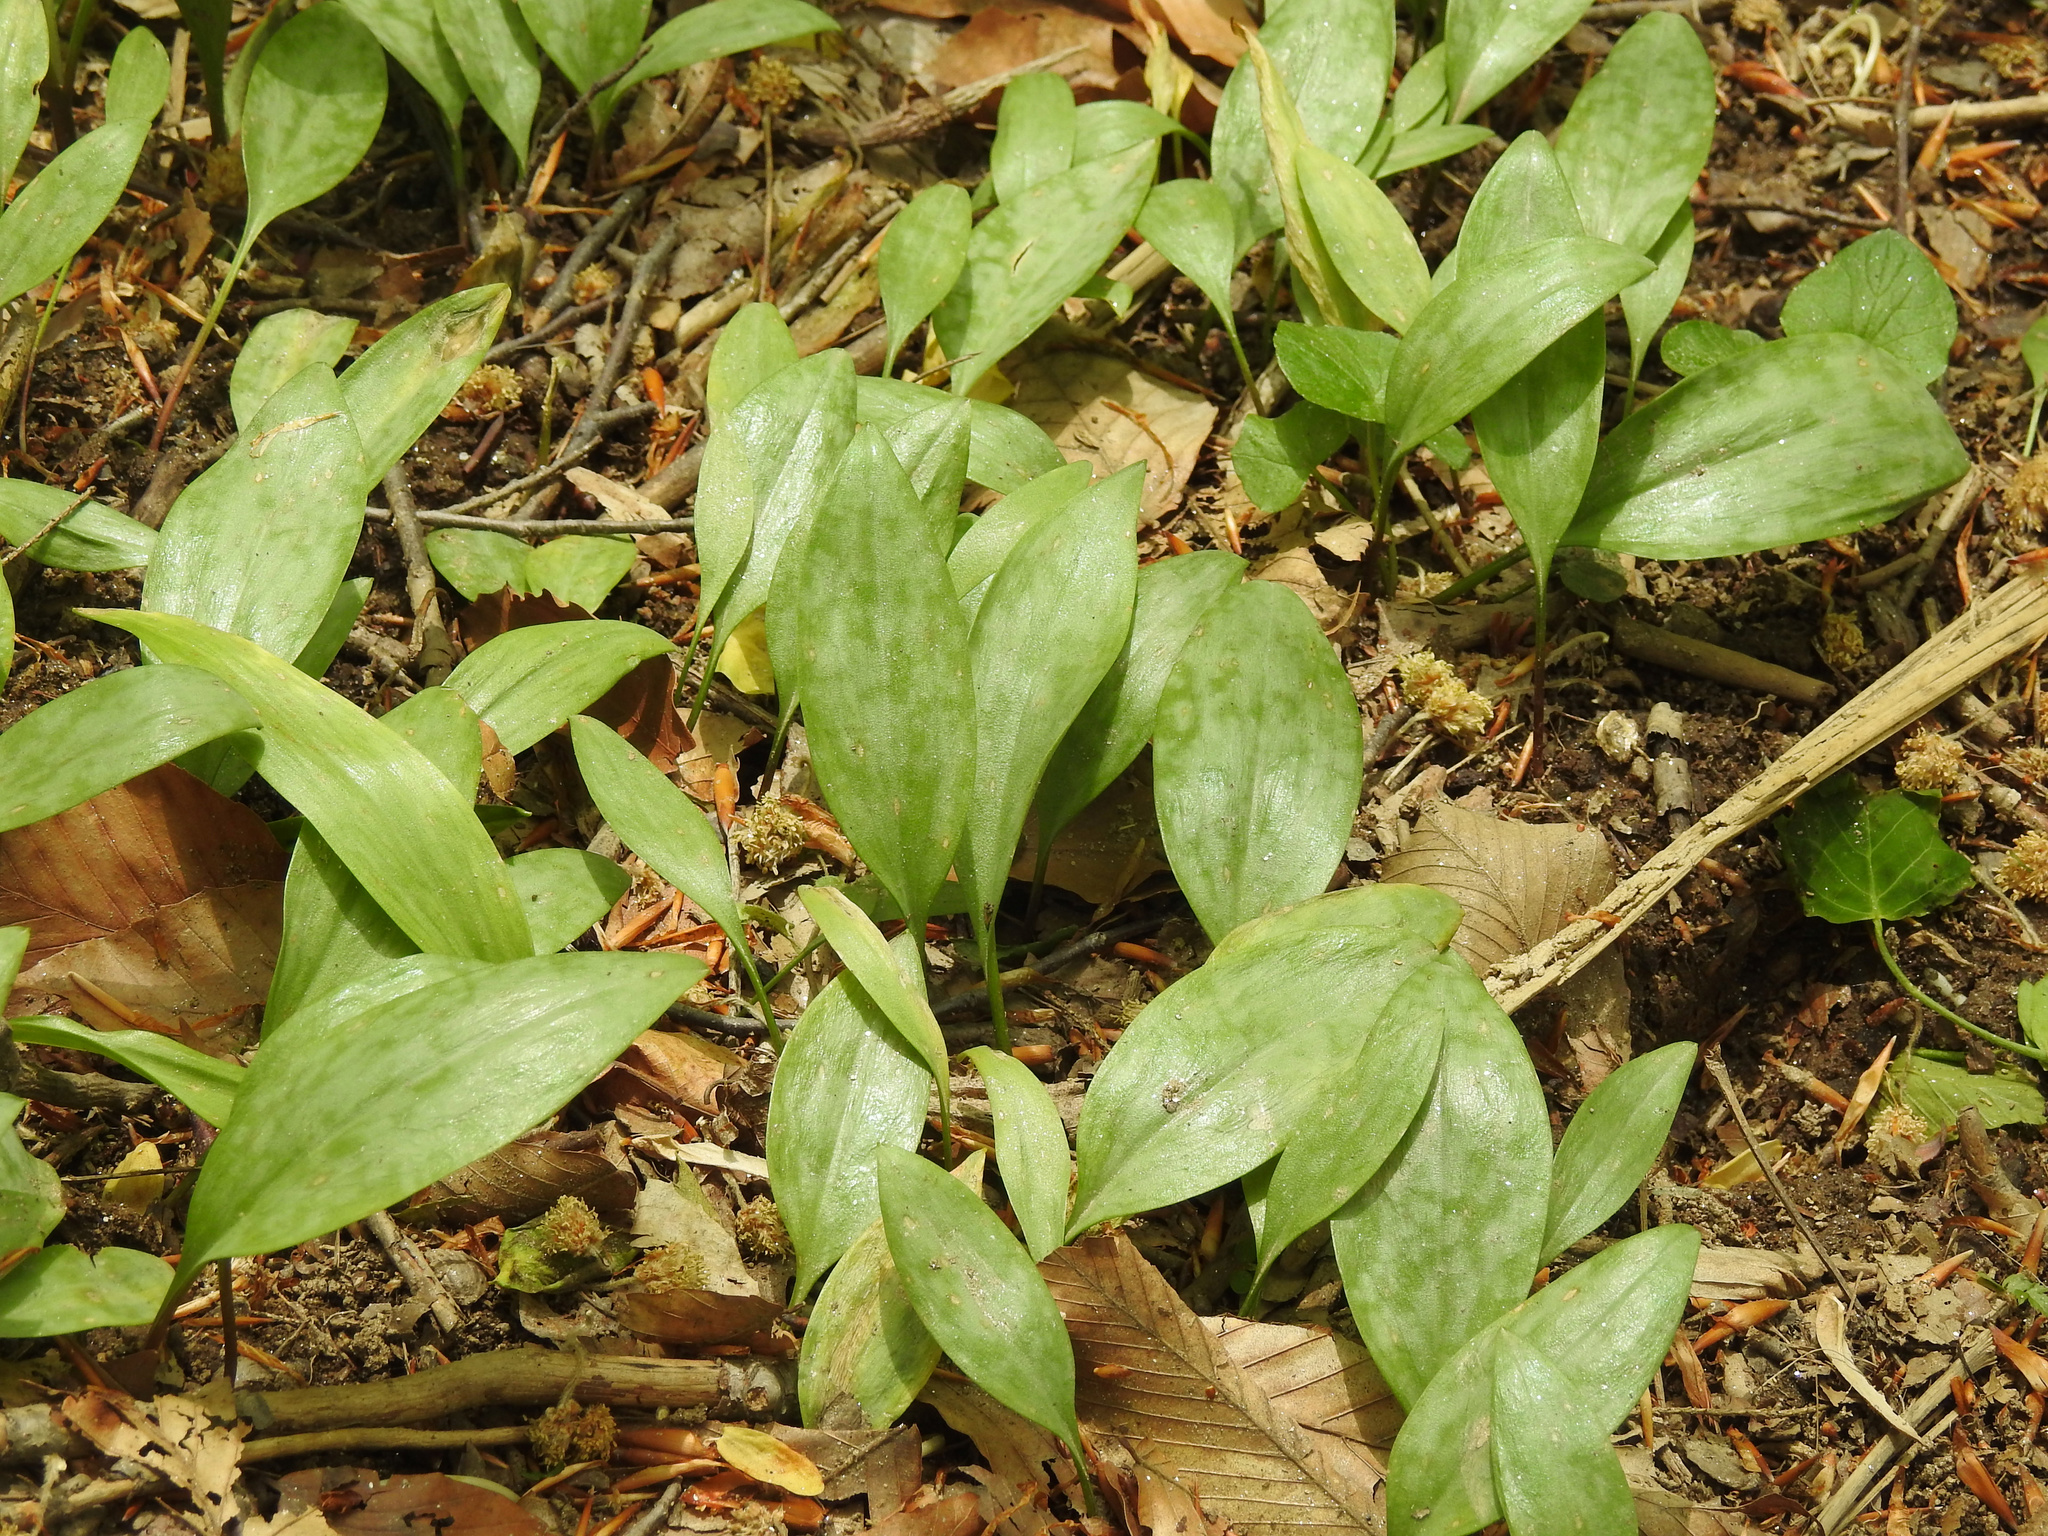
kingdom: Plantae
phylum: Tracheophyta
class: Liliopsida
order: Liliales
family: Liliaceae
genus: Erythronium
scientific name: Erythronium americanum
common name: Yellow adder's-tongue
